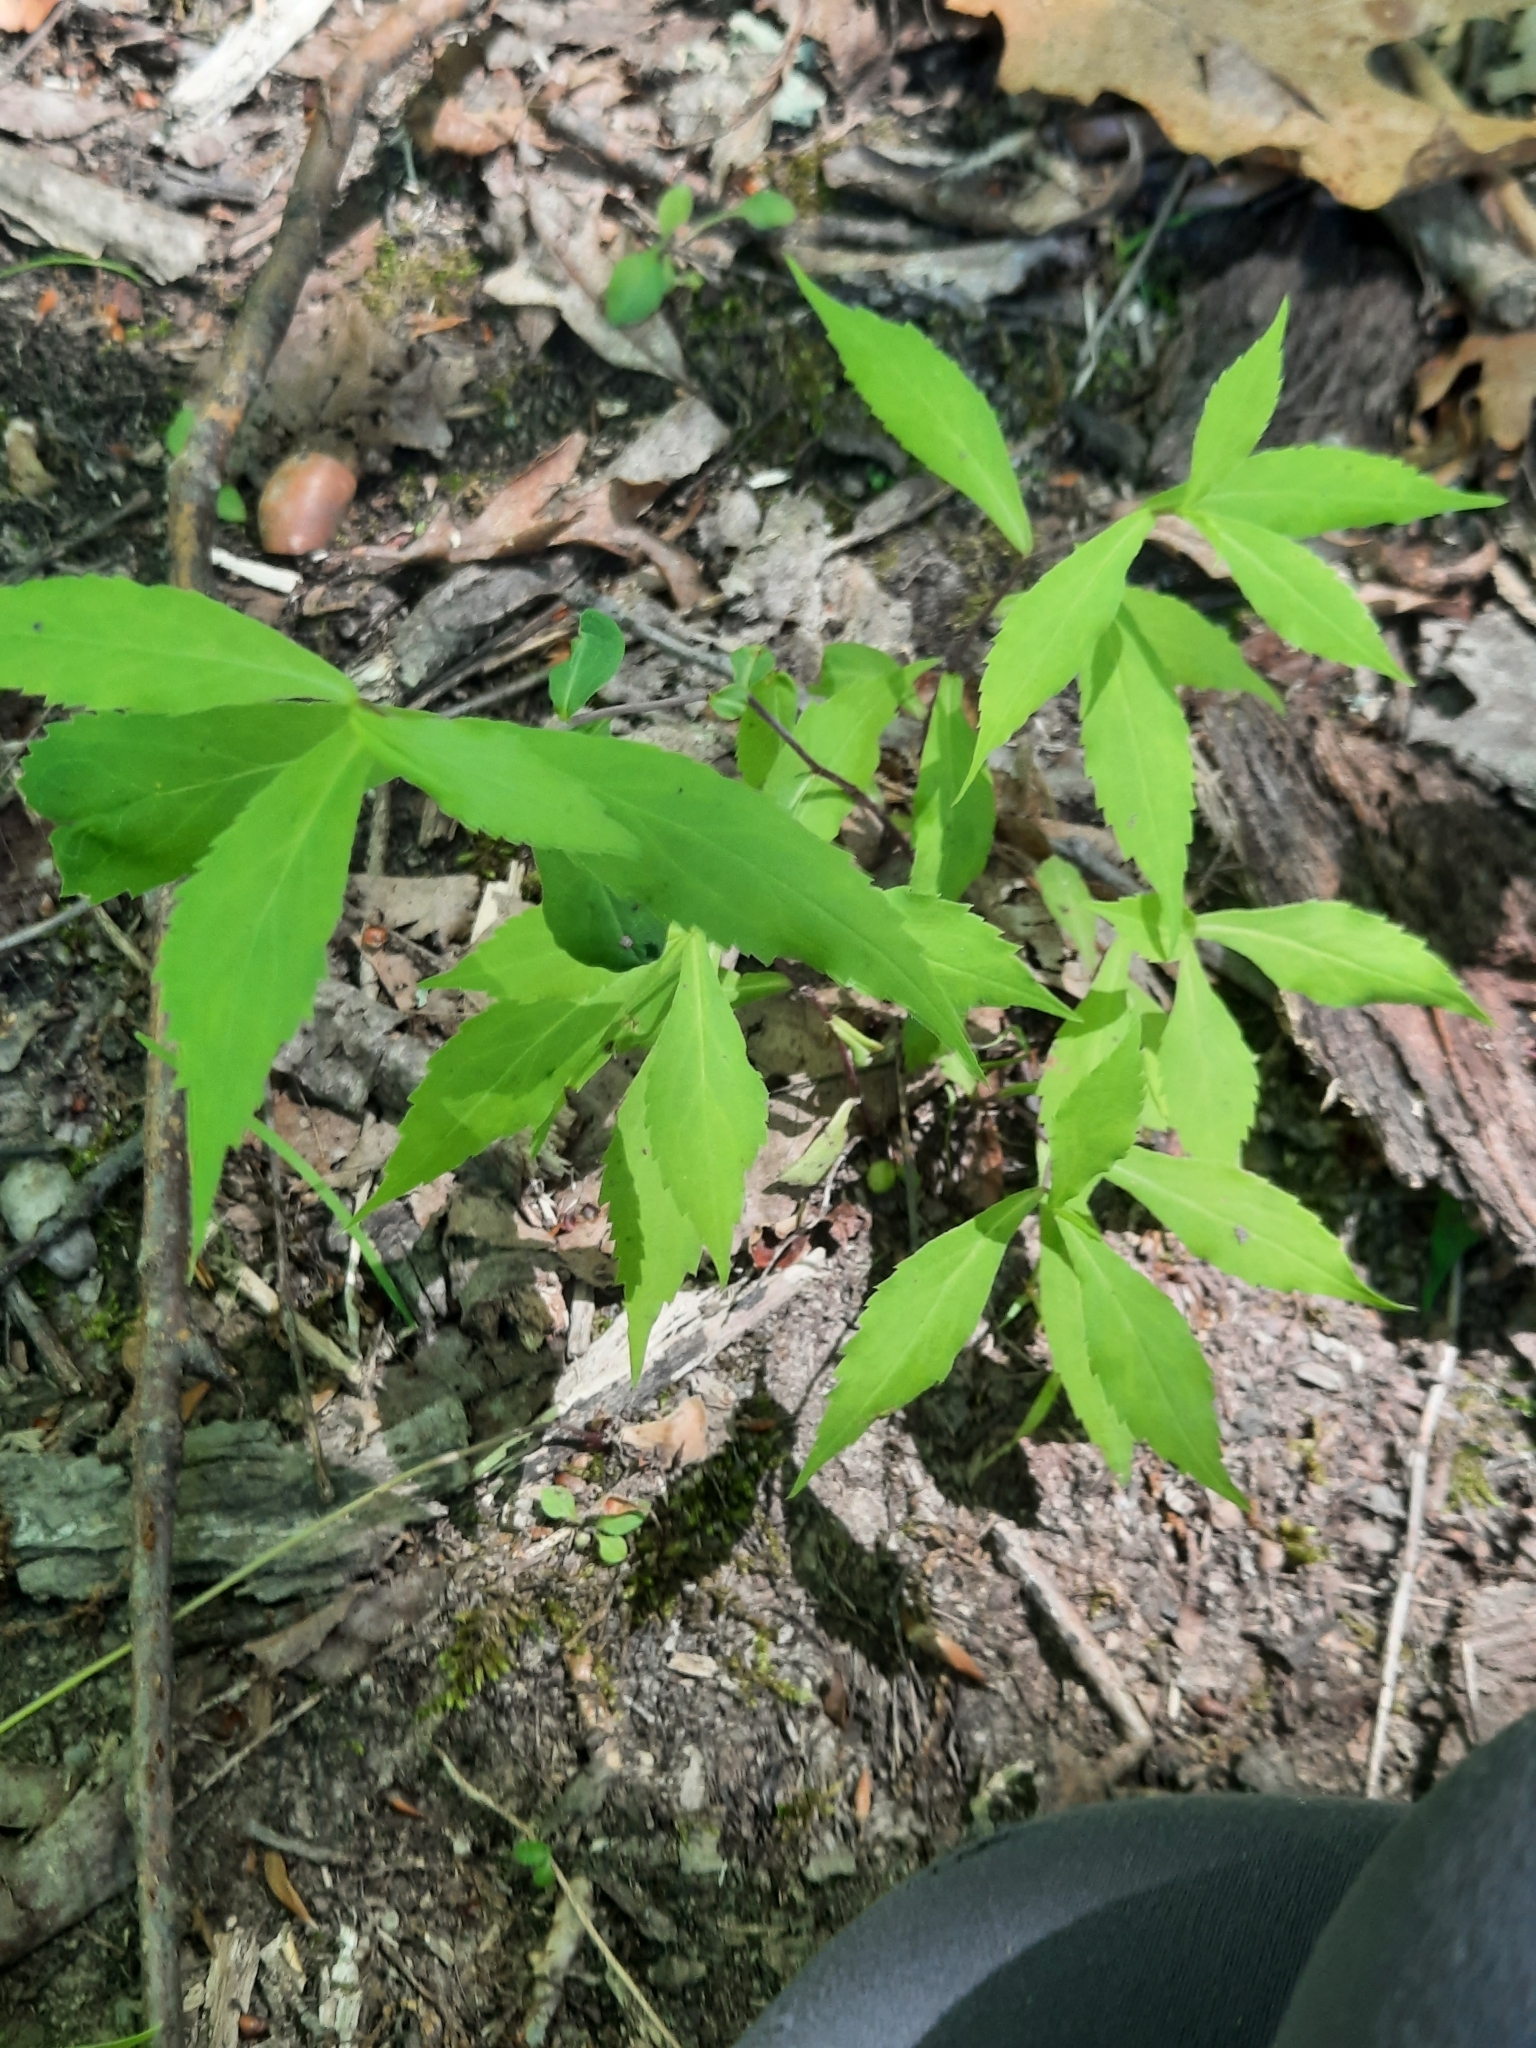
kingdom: Plantae
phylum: Tracheophyta
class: Magnoliopsida
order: Asterales
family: Asteraceae
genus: Oclemena
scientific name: Oclemena acuminata
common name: Mountain aster
